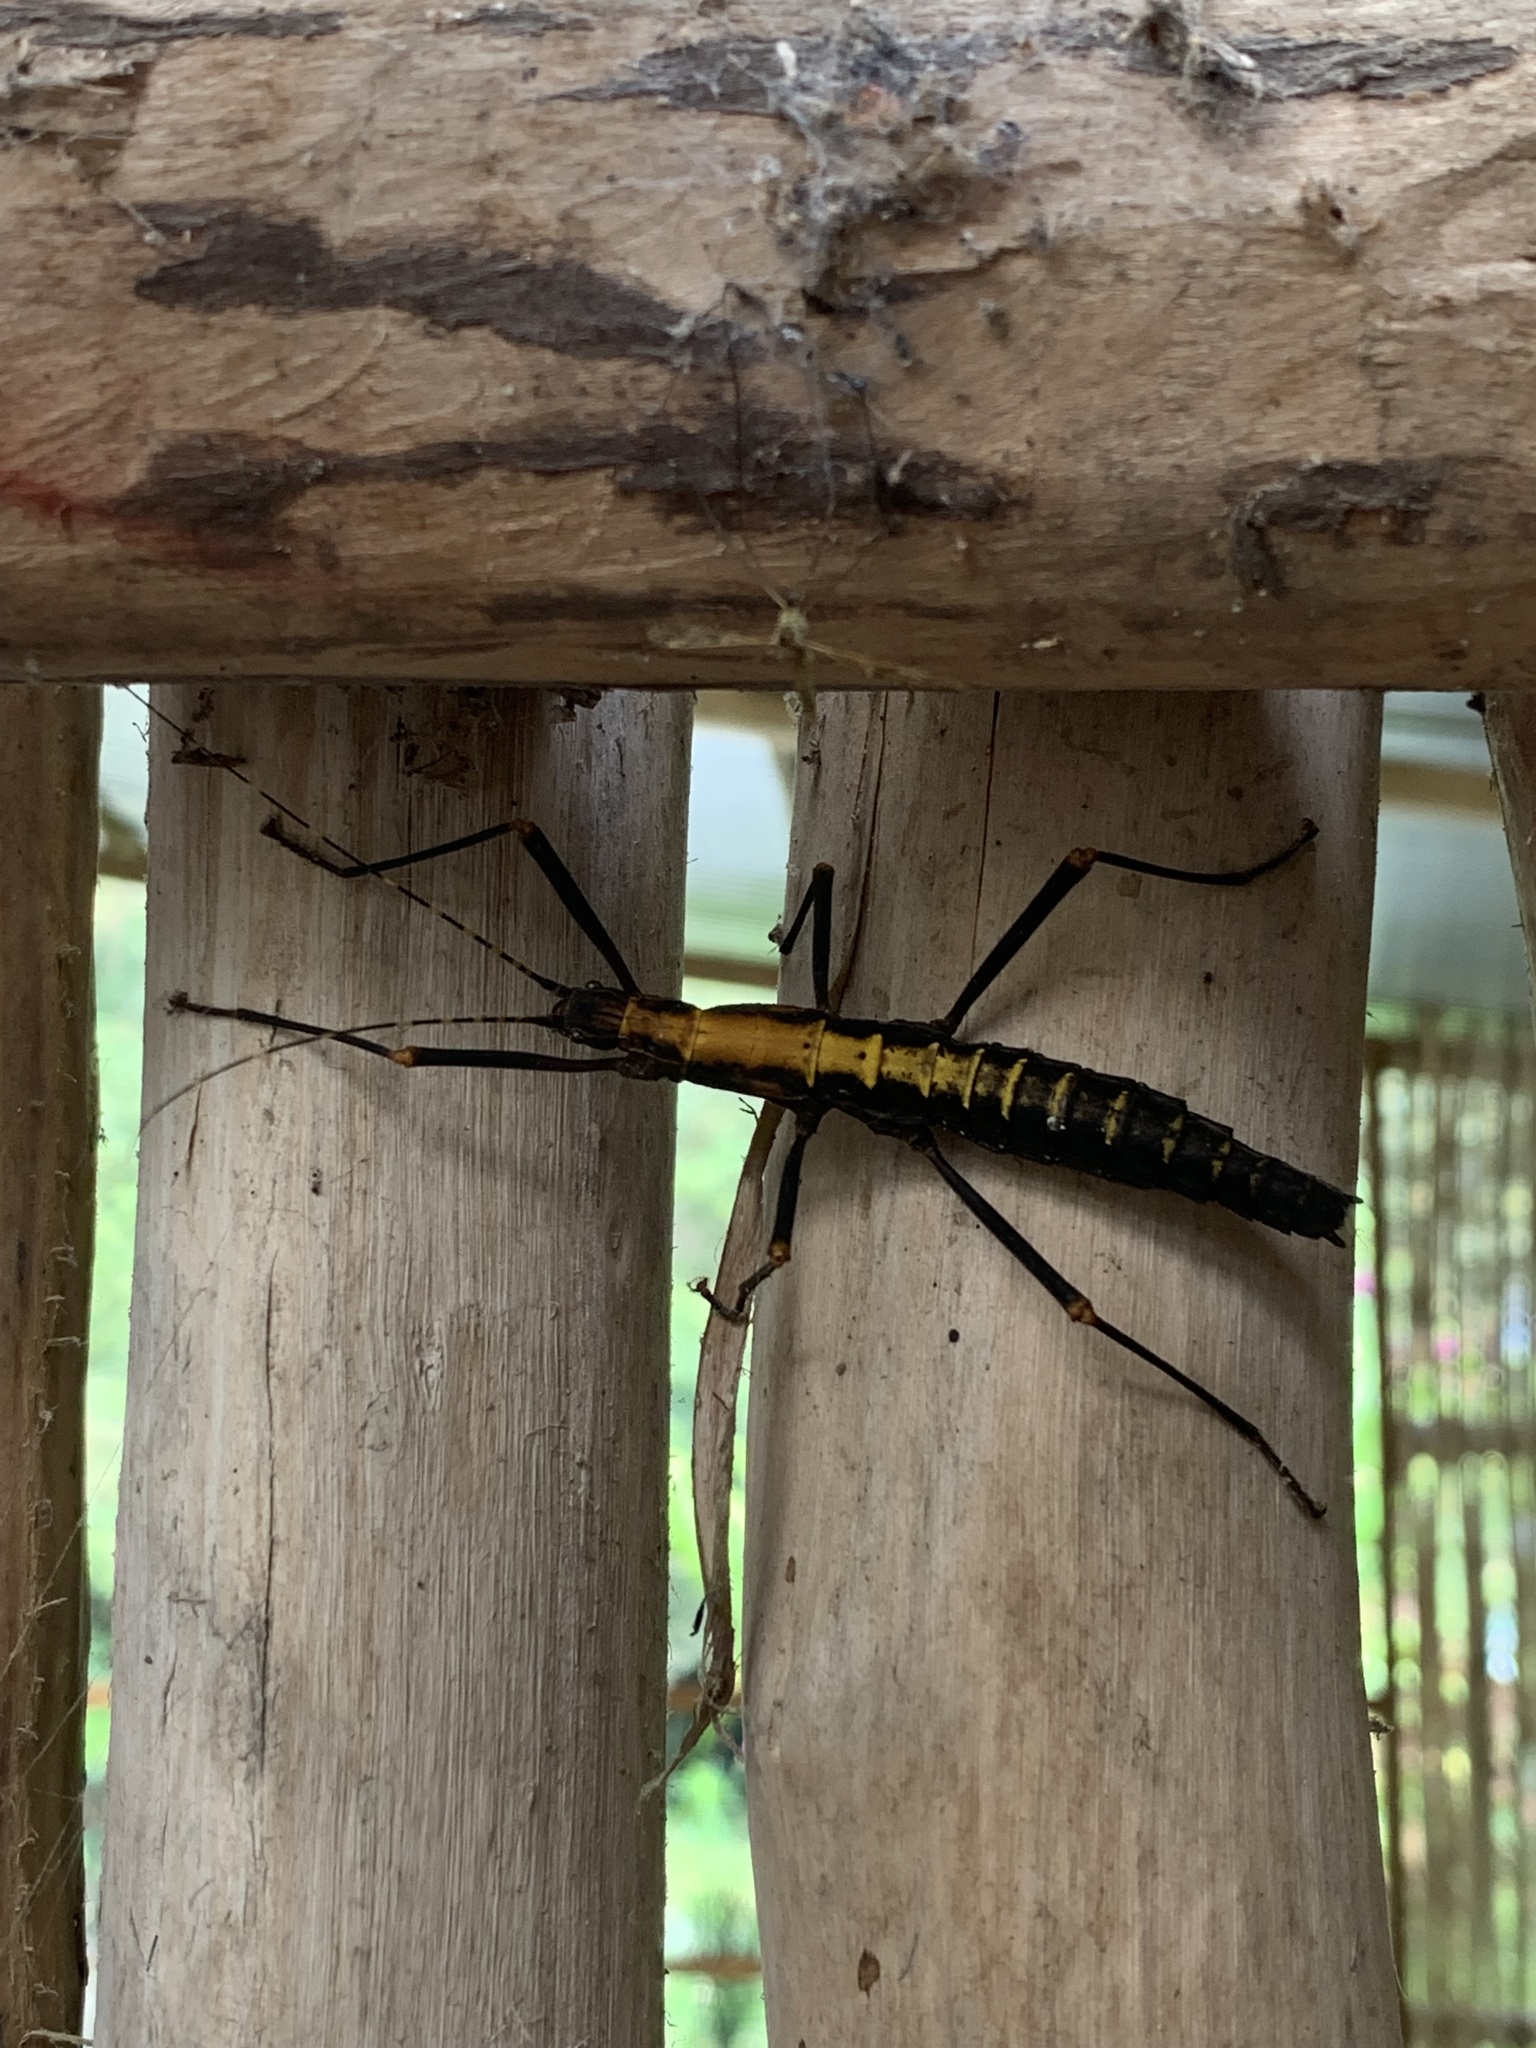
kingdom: Animalia
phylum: Arthropoda
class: Insecta
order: Phasmida
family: Pseudophasmatidae
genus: Peruphasma
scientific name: Peruphasma transversatum
